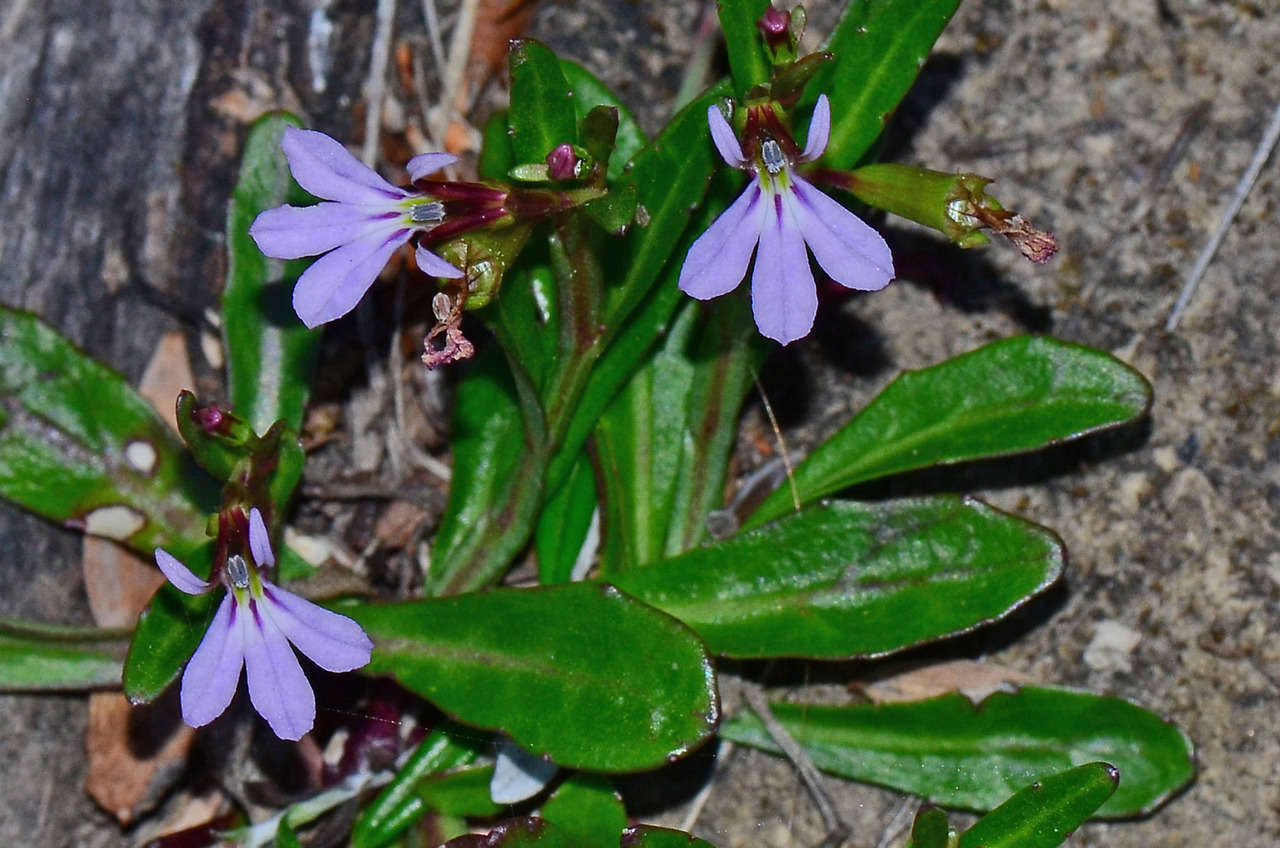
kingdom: Plantae
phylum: Tracheophyta
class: Magnoliopsida
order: Asterales
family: Campanulaceae
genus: Lobelia
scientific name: Lobelia anceps
